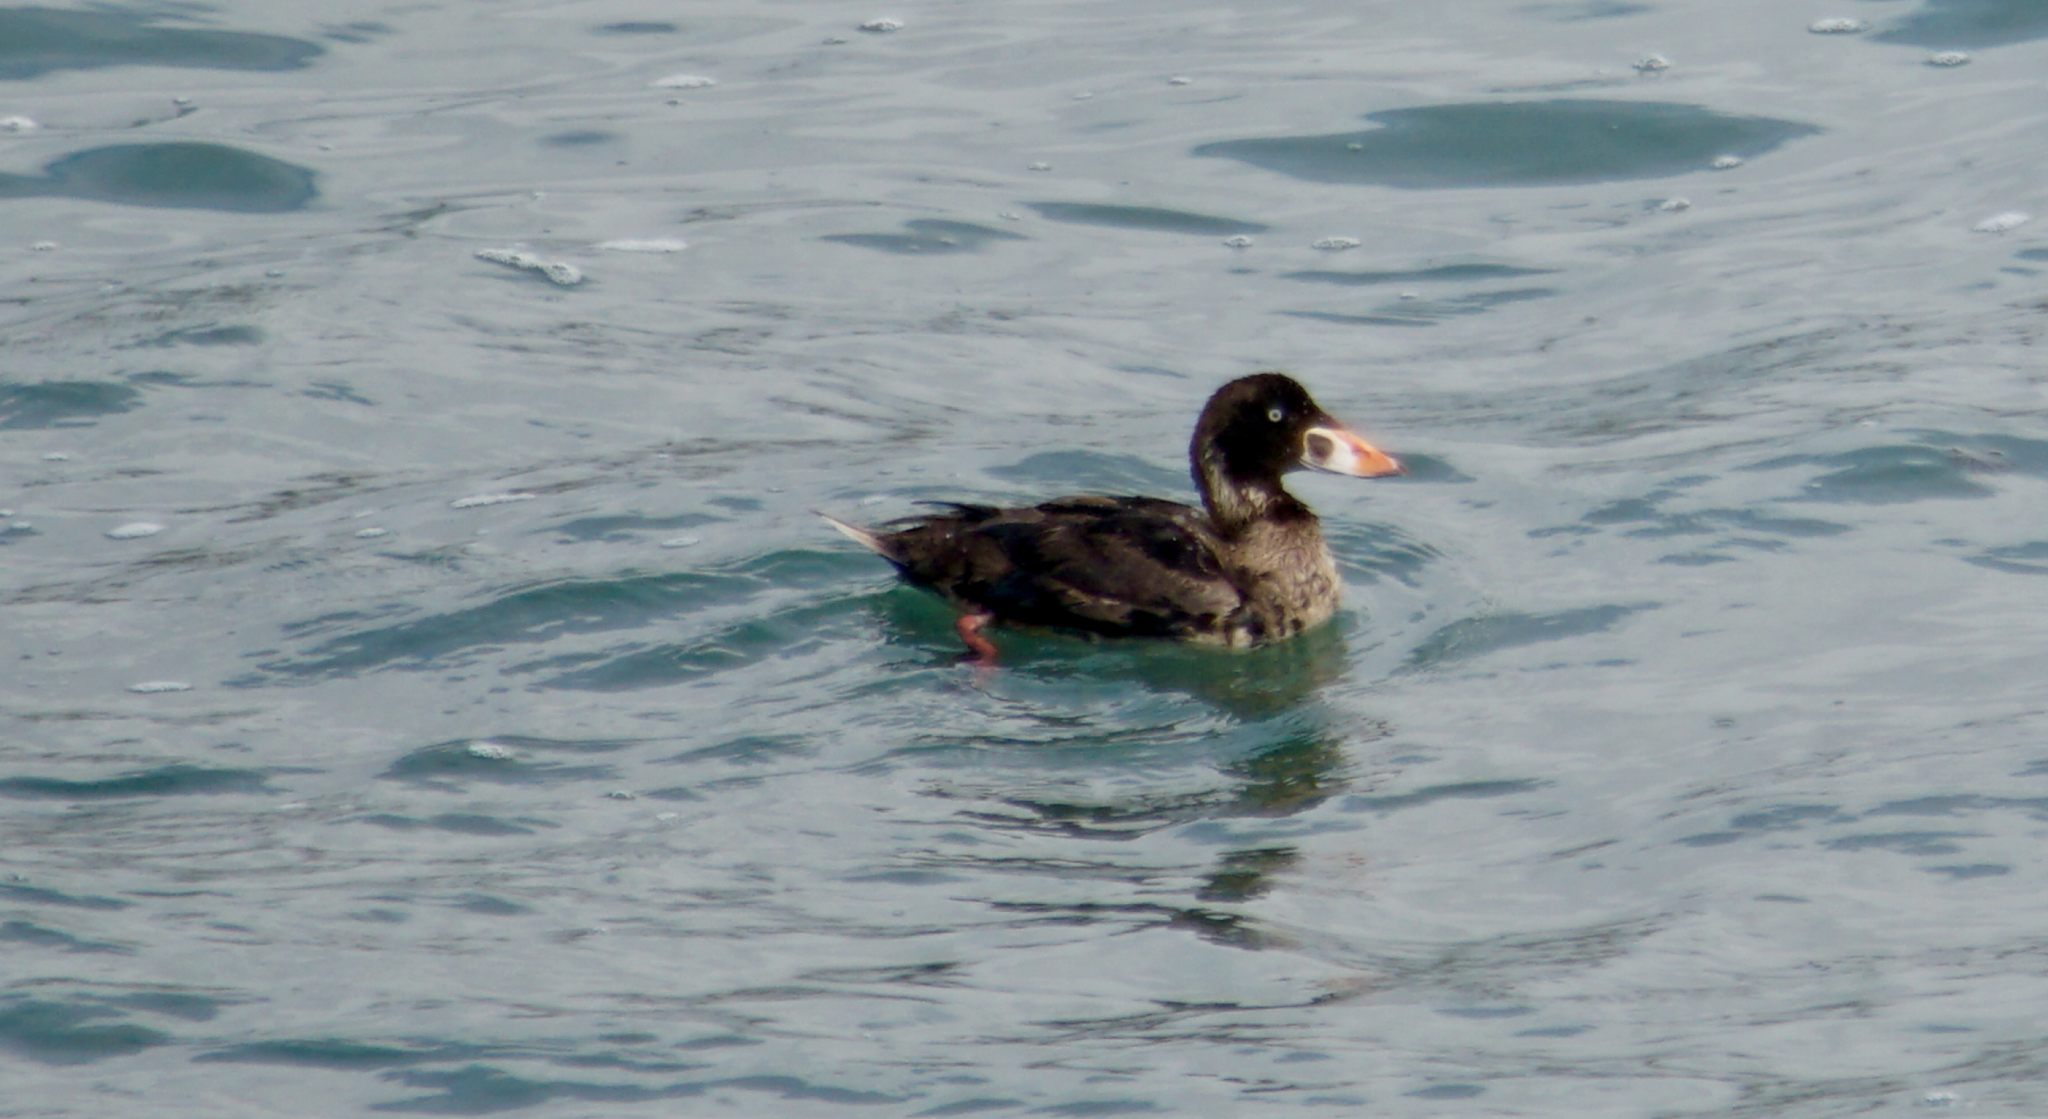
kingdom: Animalia
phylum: Chordata
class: Aves
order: Anseriformes
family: Anatidae
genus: Melanitta
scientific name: Melanitta perspicillata
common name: Surf scoter
